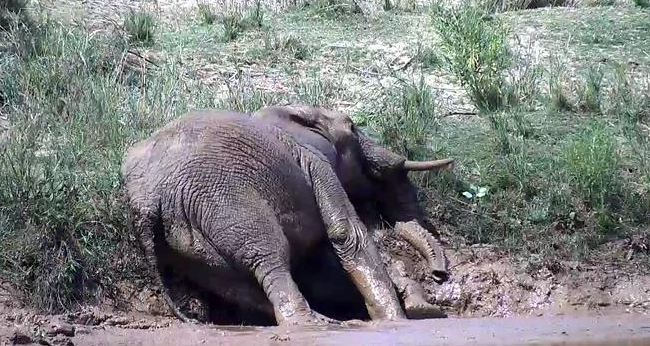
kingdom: Animalia
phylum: Chordata
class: Mammalia
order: Proboscidea
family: Elephantidae
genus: Loxodonta
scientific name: Loxodonta africana
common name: African elephant
